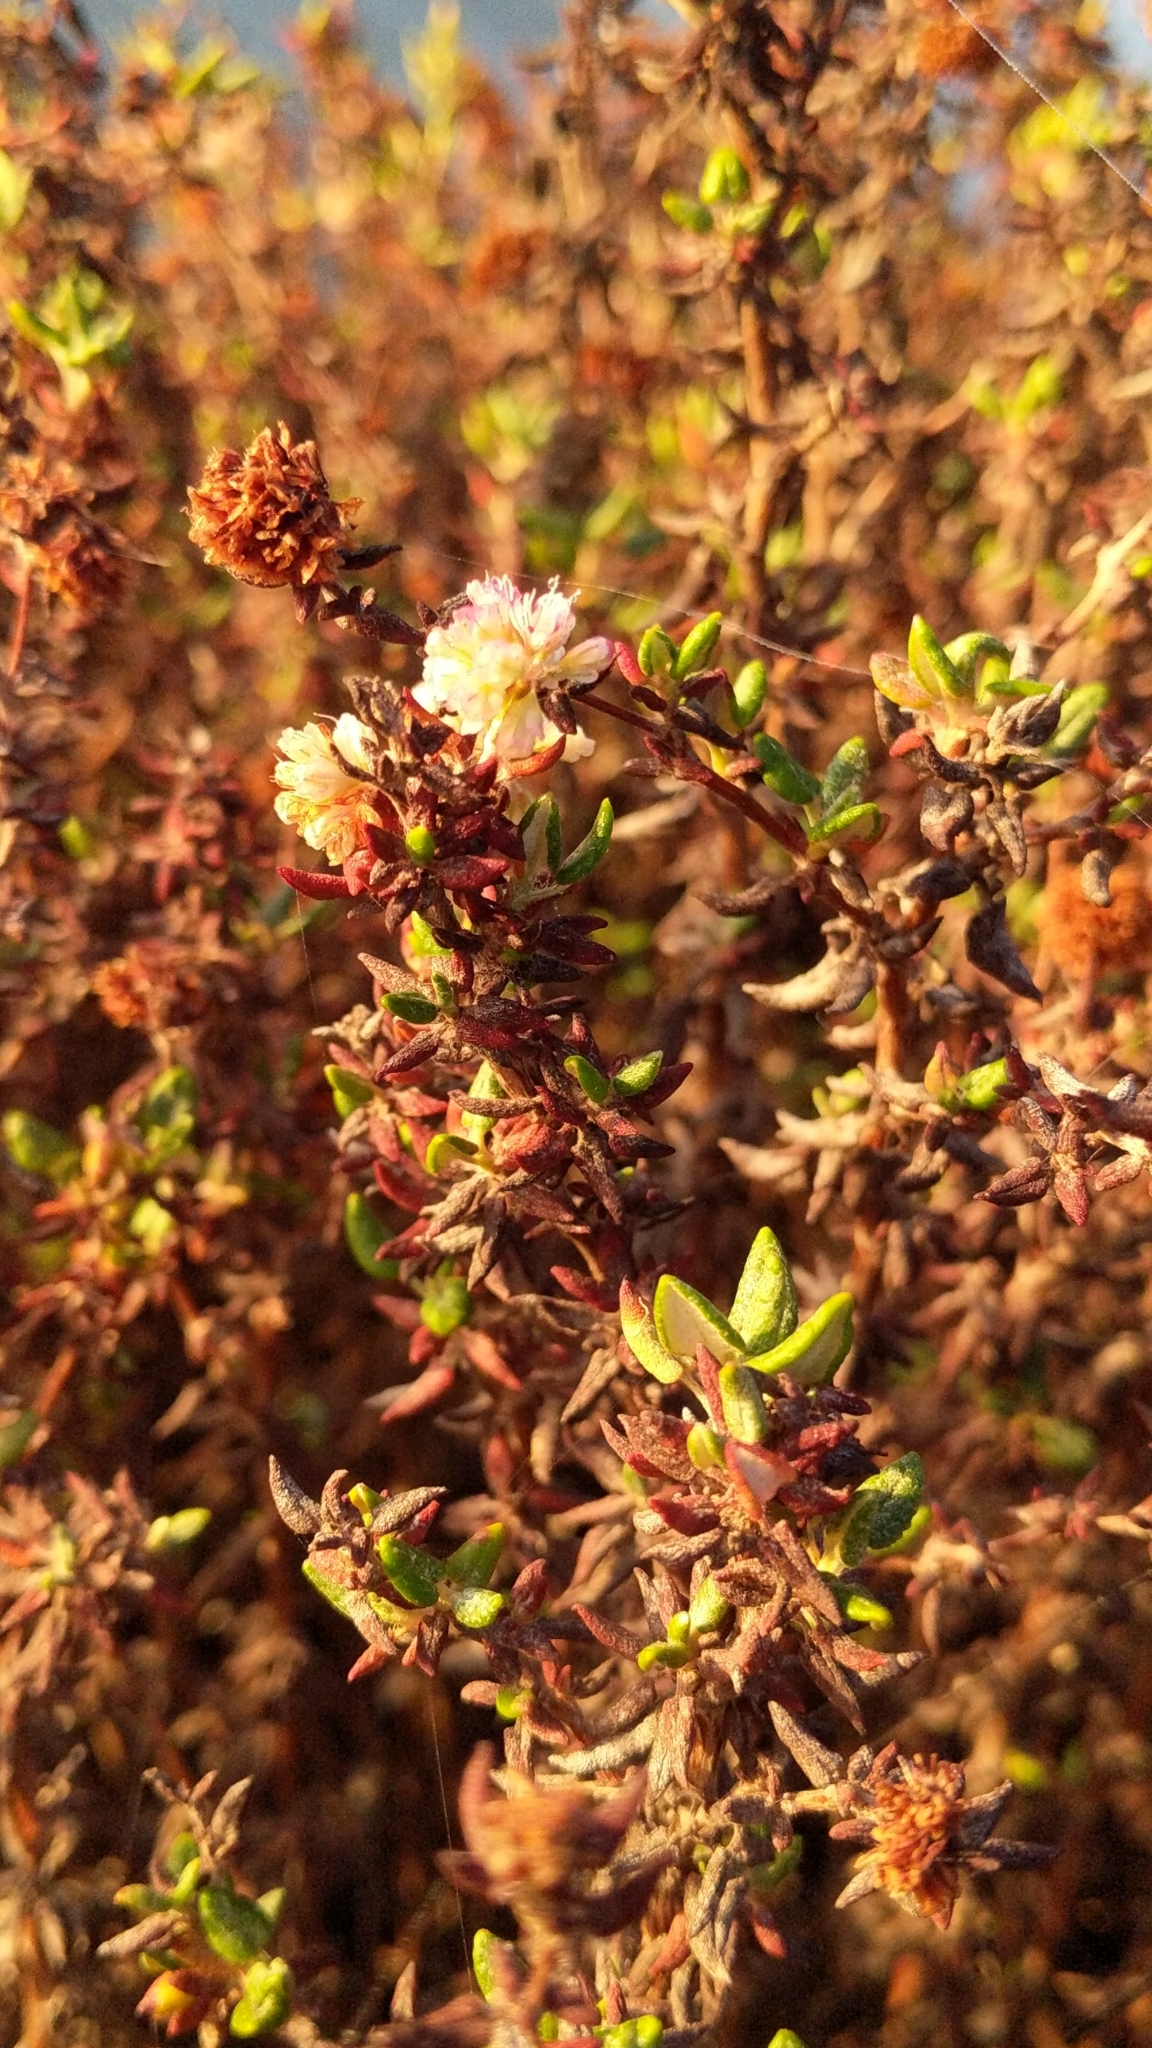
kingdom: Plantae
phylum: Tracheophyta
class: Magnoliopsida
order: Caryophyllales
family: Polygonaceae
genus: Eriogonum
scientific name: Eriogonum parvifolium
